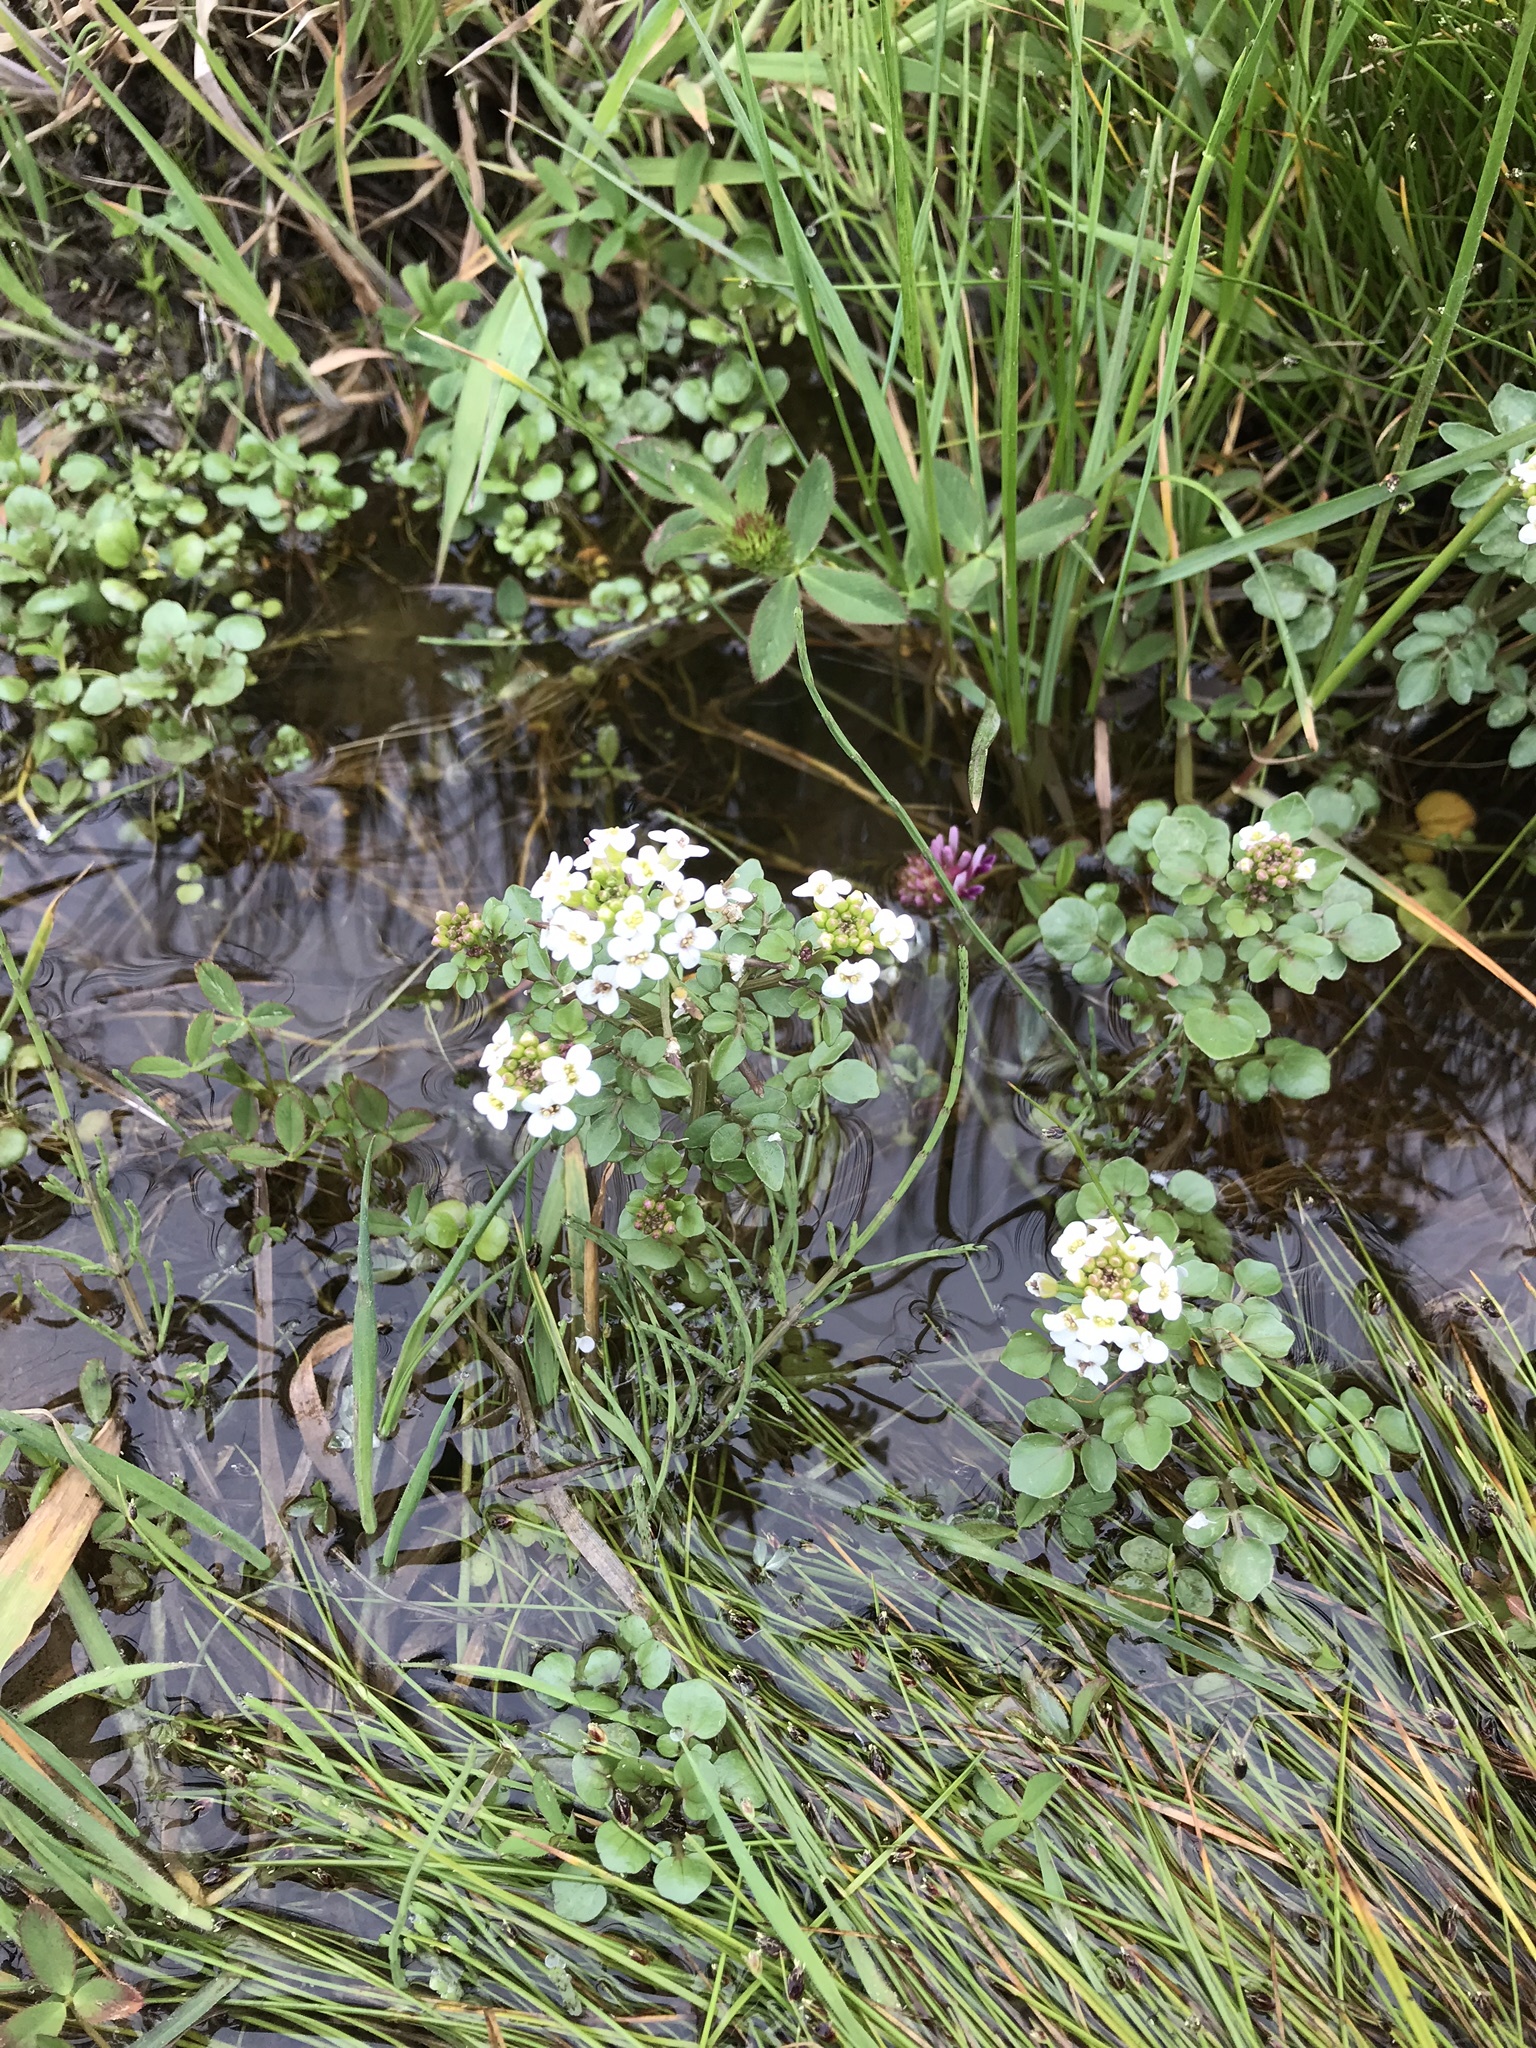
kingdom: Plantae
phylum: Tracheophyta
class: Magnoliopsida
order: Brassicales
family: Brassicaceae
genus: Nasturtium
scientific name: Nasturtium officinale
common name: Watercress
